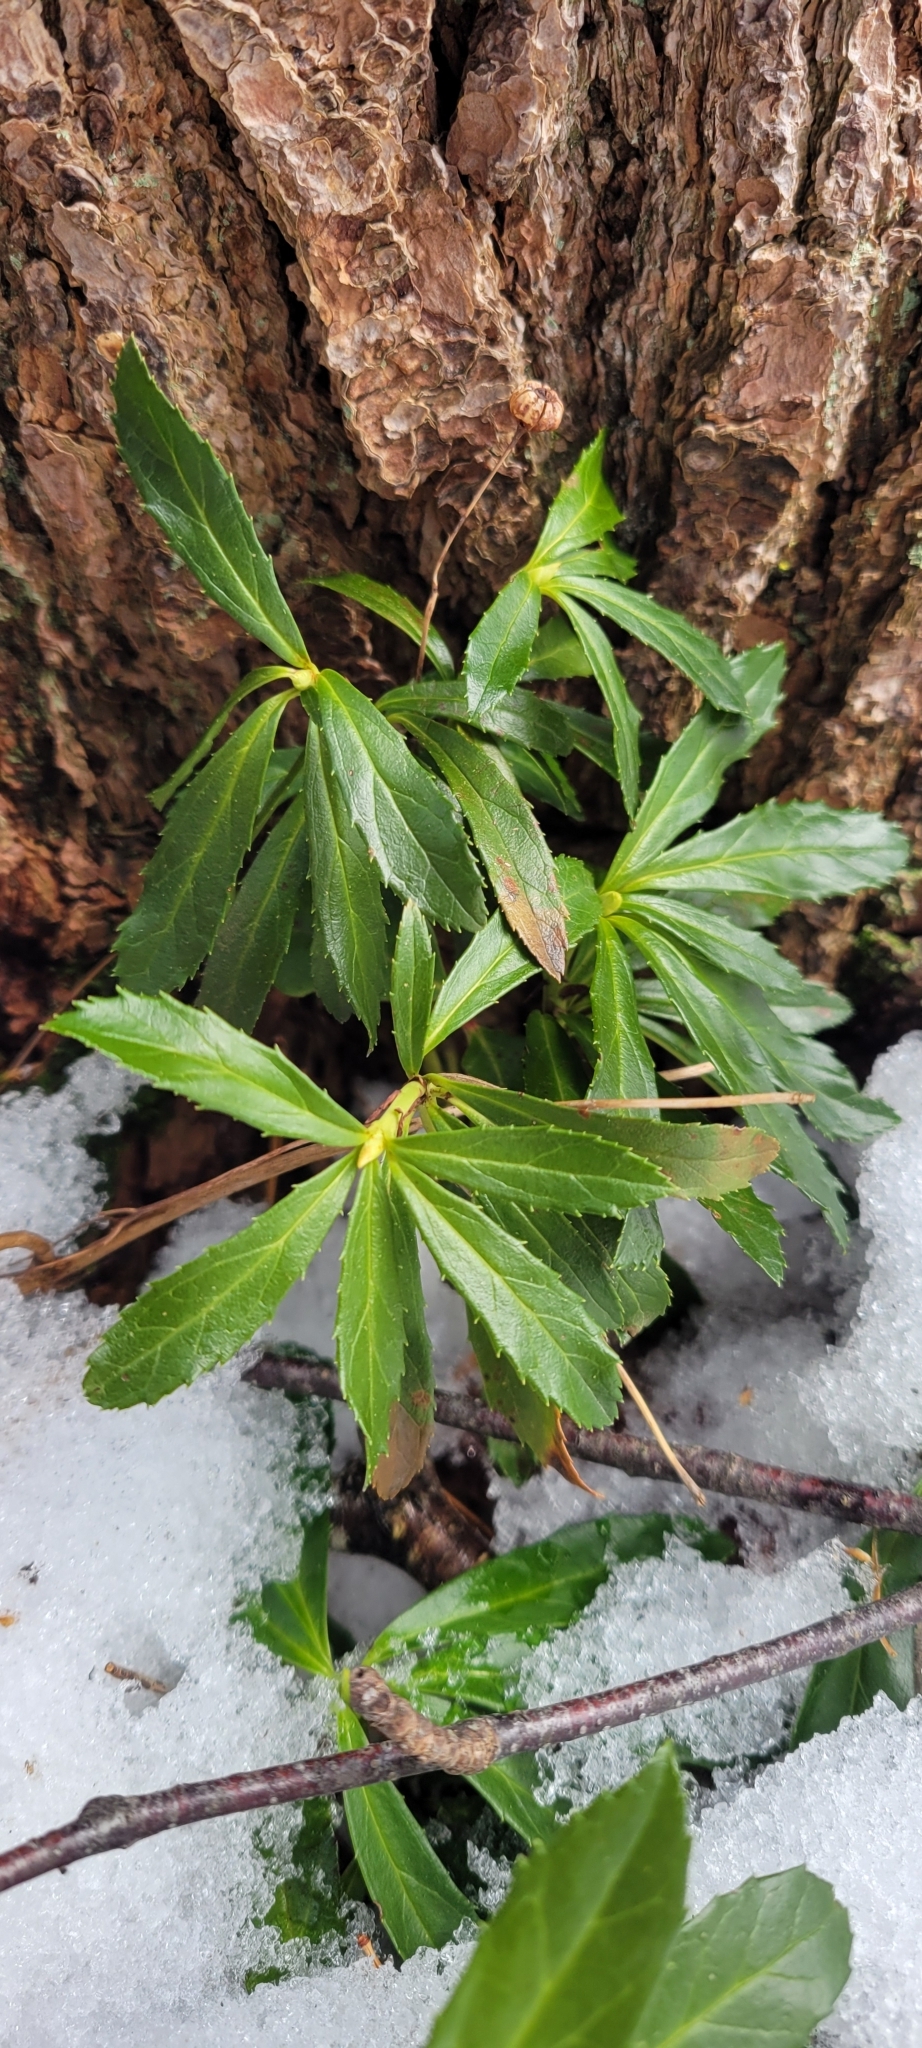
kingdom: Plantae
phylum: Tracheophyta
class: Magnoliopsida
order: Ericales
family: Ericaceae
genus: Chimaphila
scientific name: Chimaphila umbellata
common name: Pipsissewa
